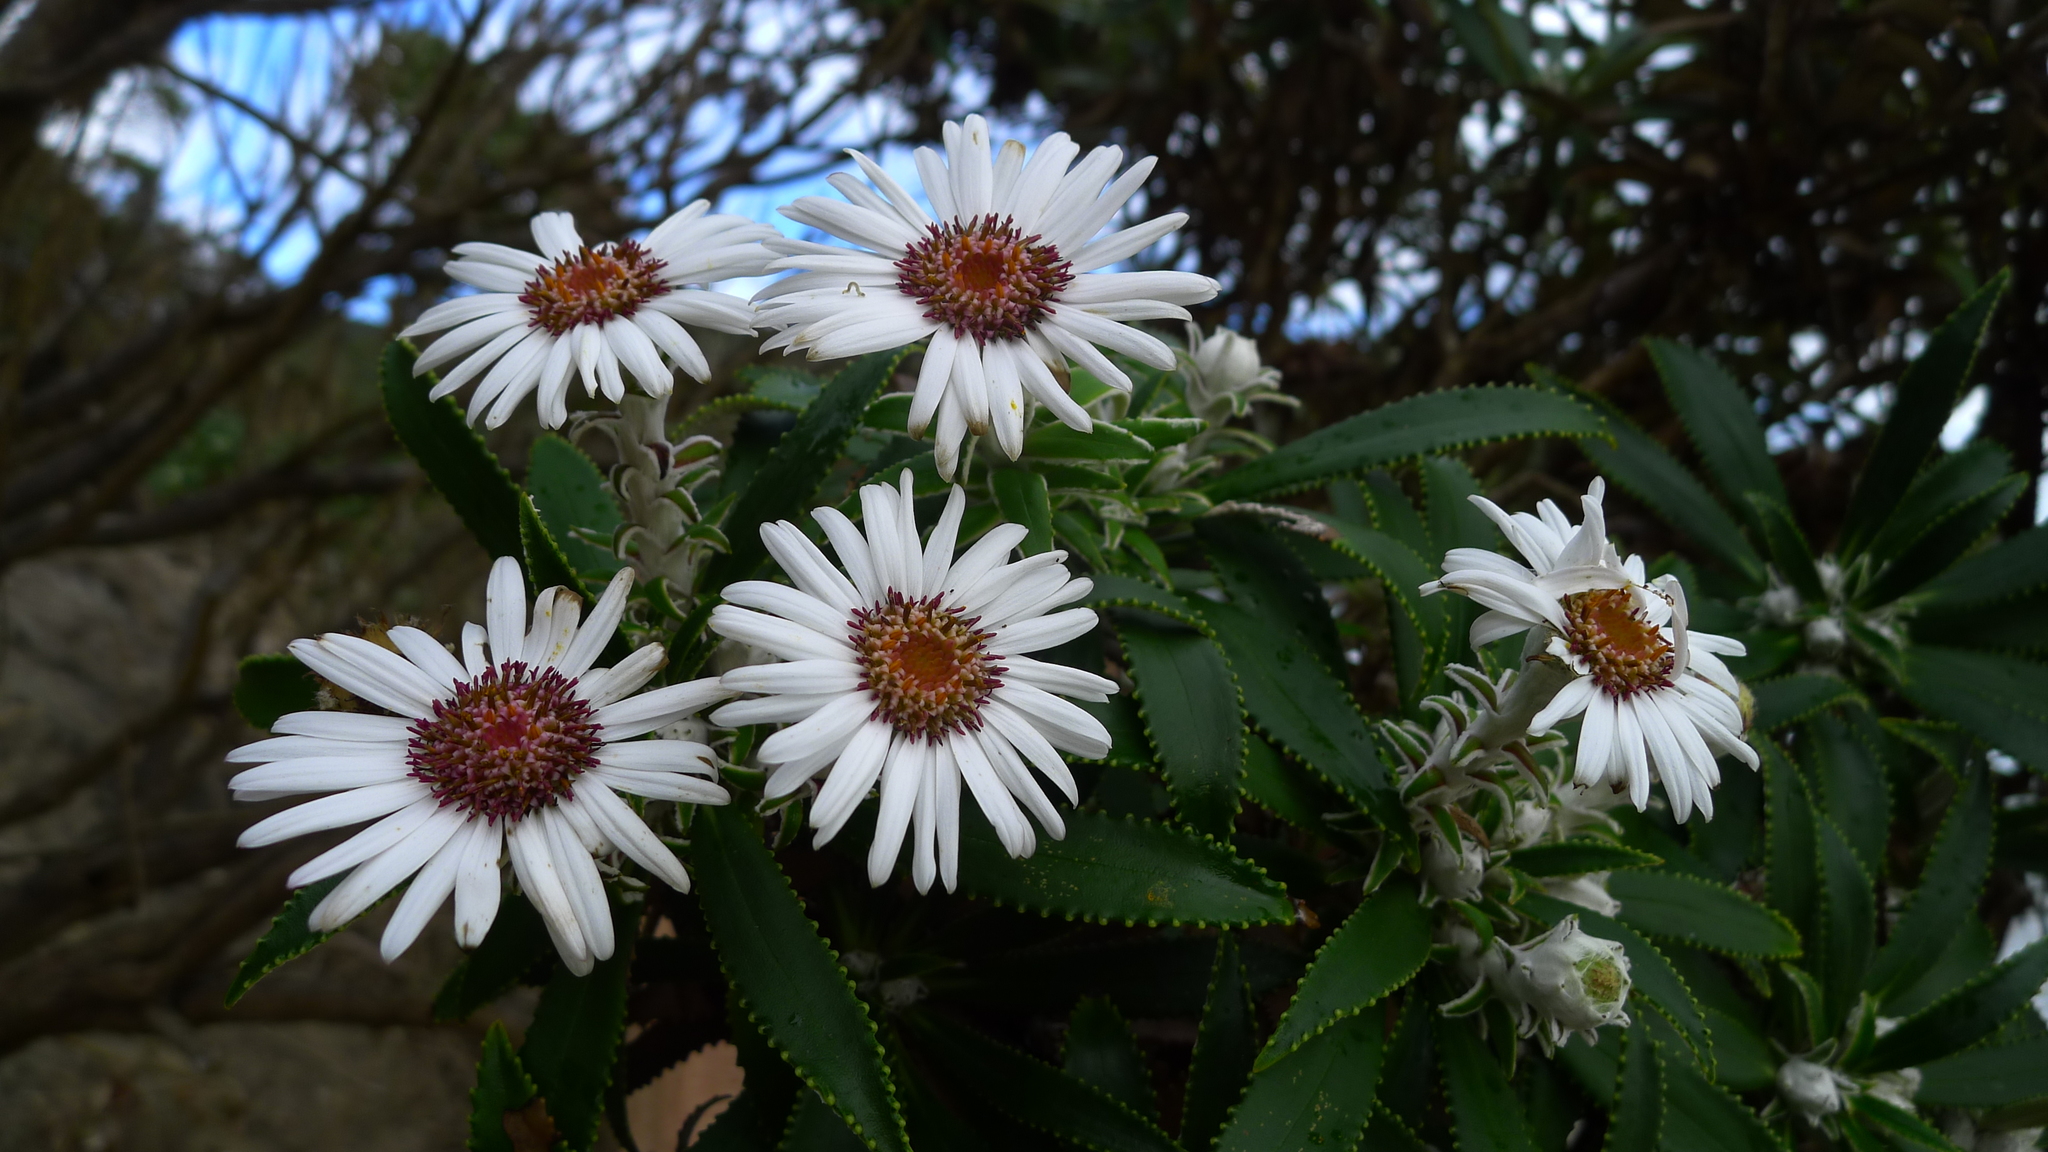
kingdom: Plantae
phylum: Tracheophyta
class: Magnoliopsida
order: Asterales
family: Asteraceae
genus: Macrolearia
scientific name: Macrolearia angustifolia
